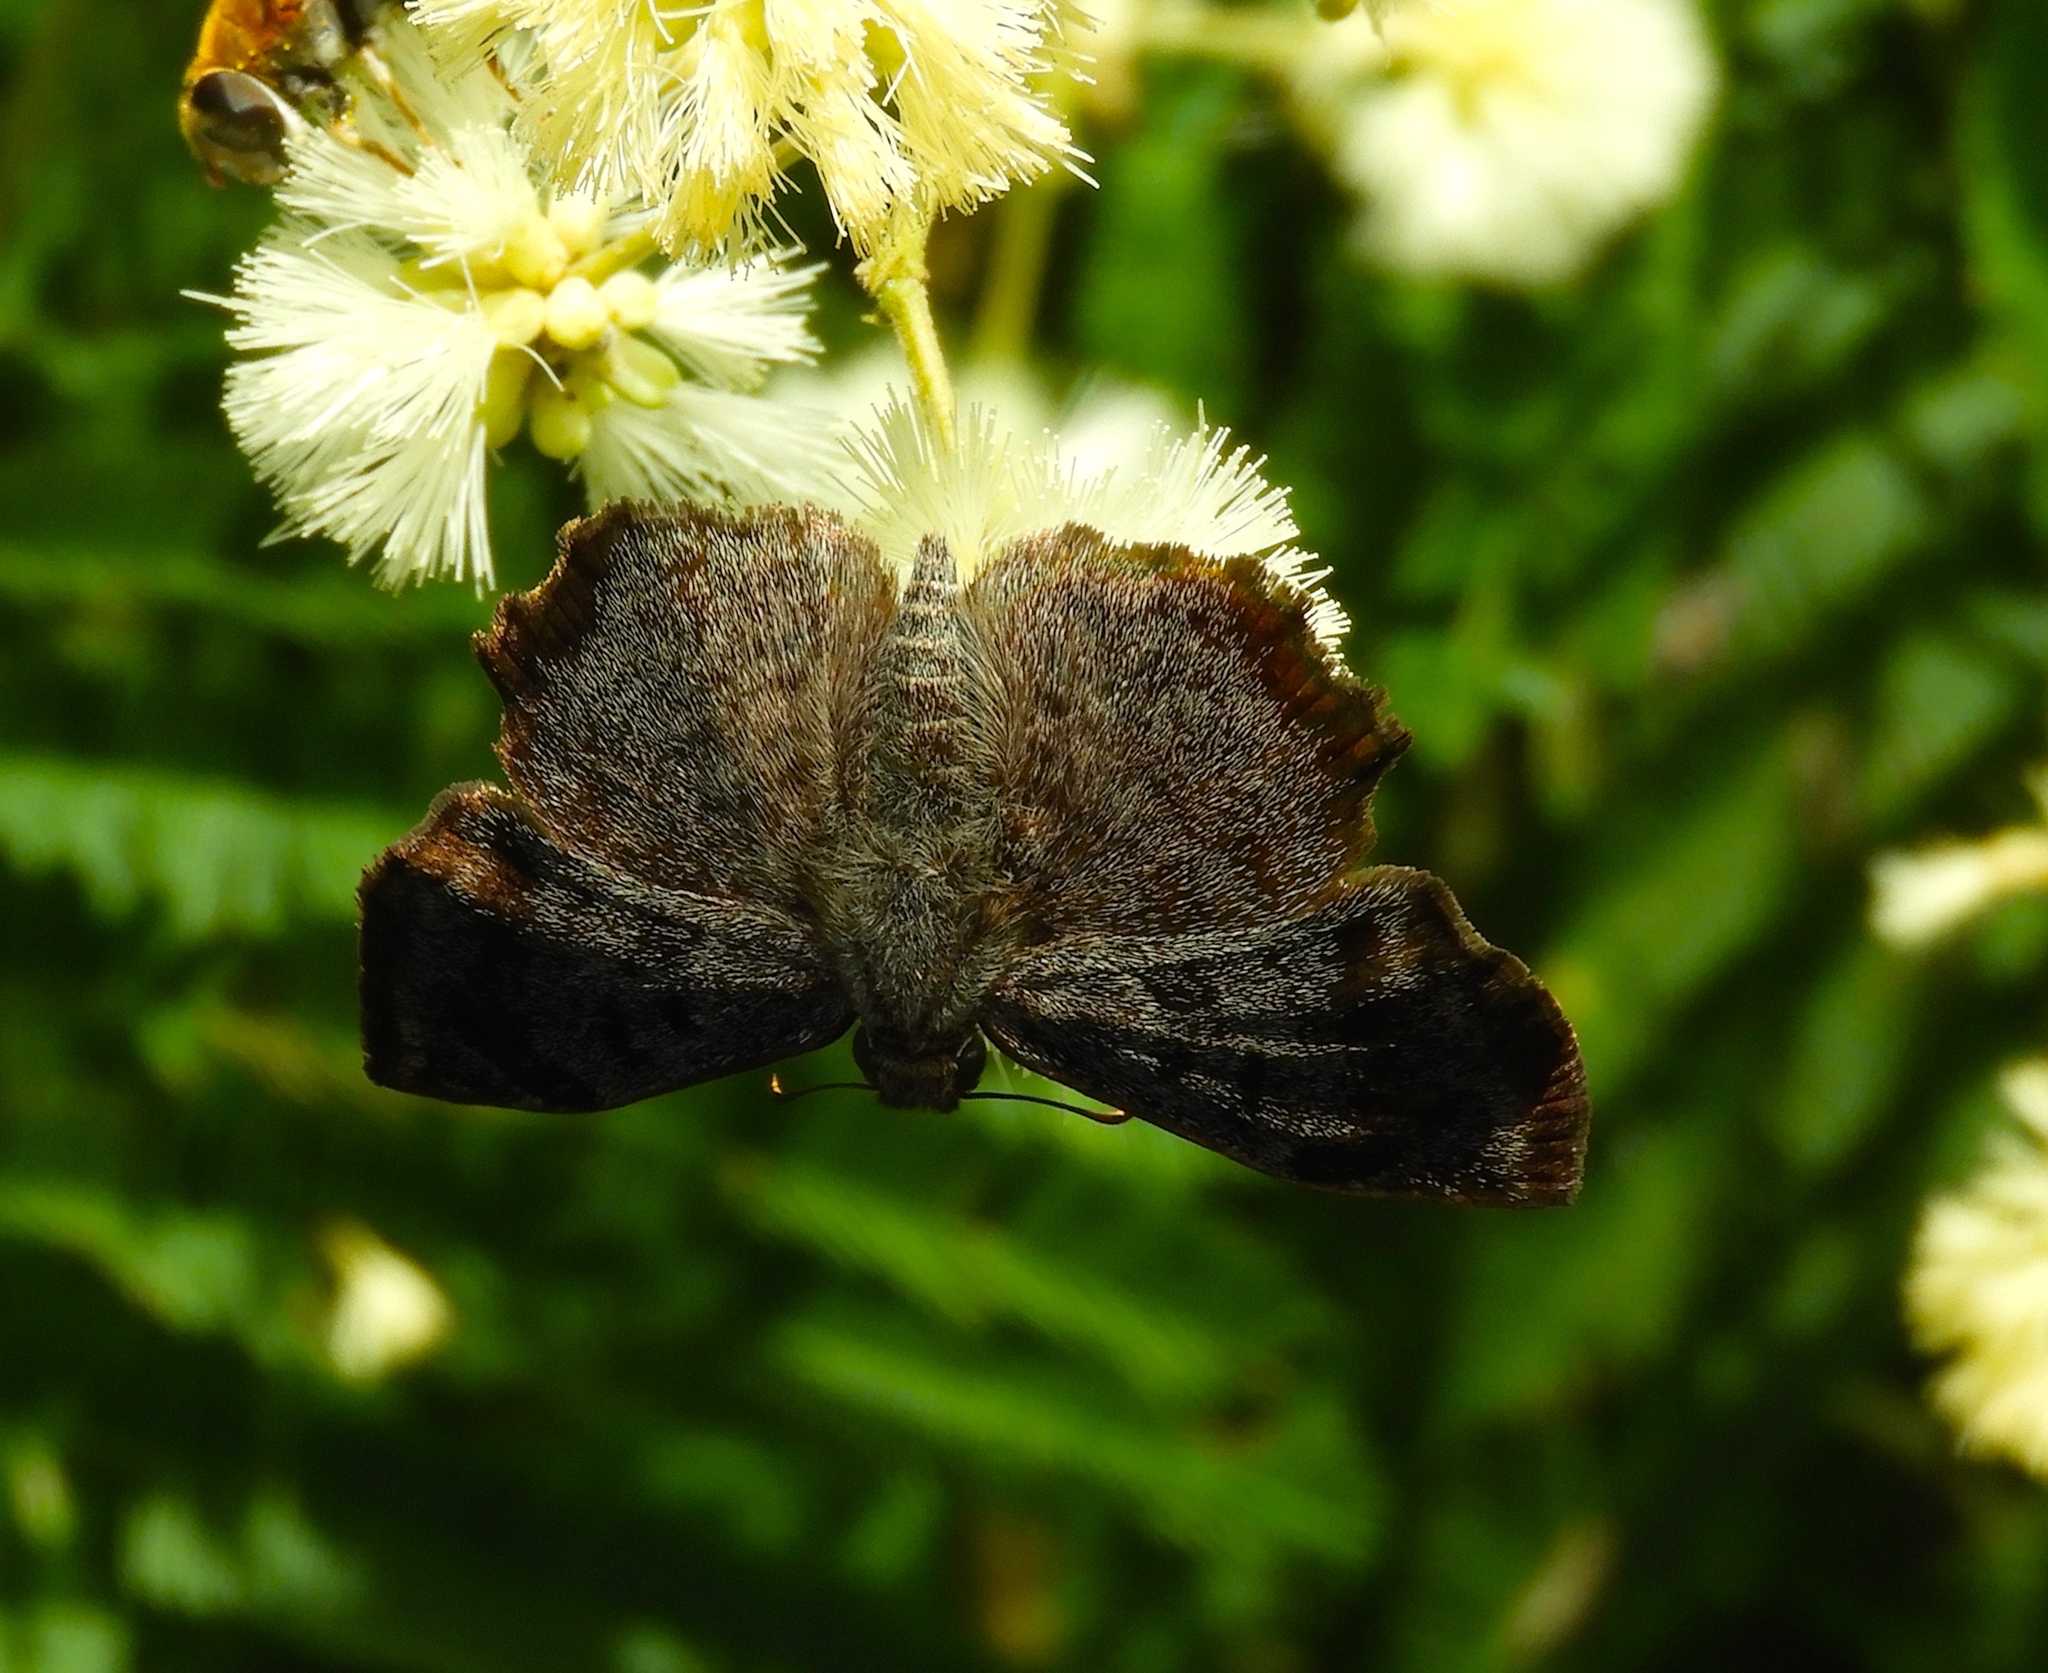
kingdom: Animalia
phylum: Arthropoda
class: Insecta
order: Lepidoptera
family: Hesperiidae
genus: Antigonus
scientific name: Antigonus erosus
